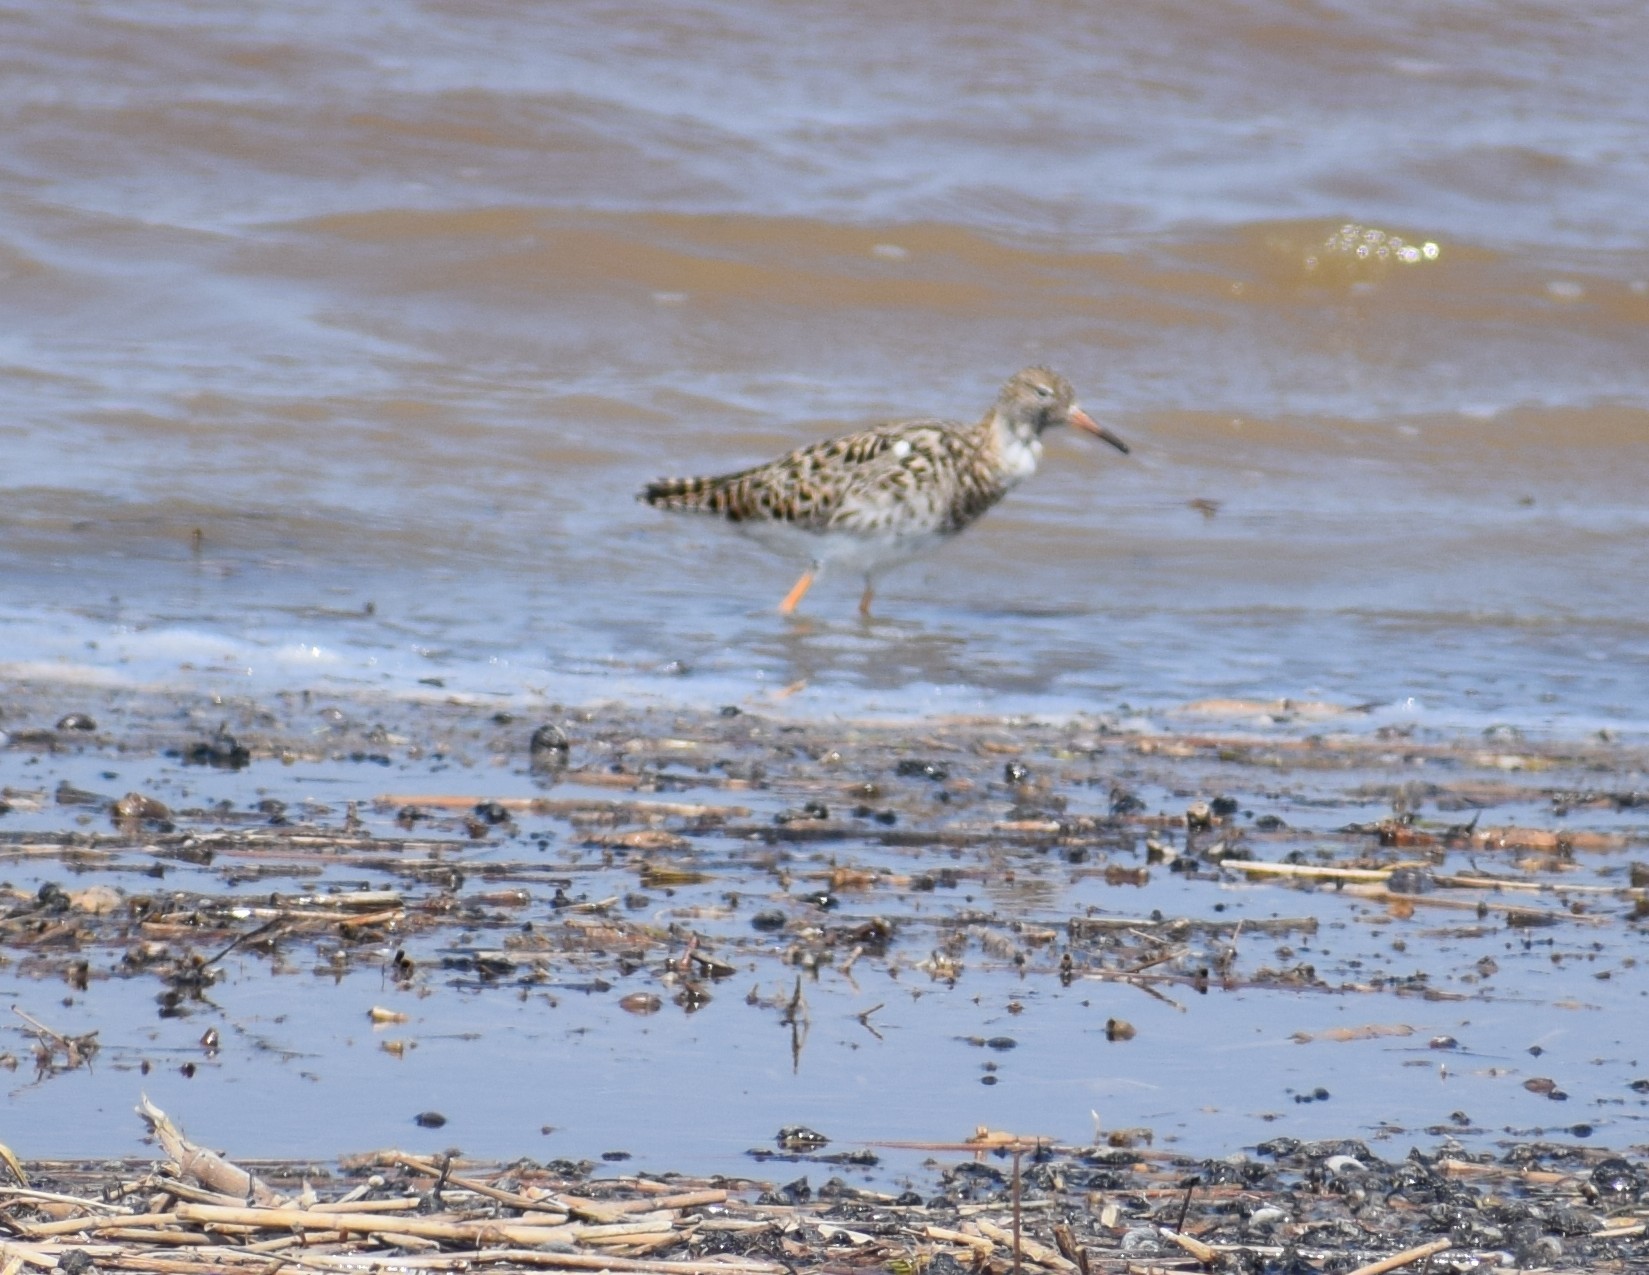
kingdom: Animalia
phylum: Chordata
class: Aves
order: Charadriiformes
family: Scolopacidae
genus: Calidris
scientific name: Calidris pugnax
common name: Ruff
